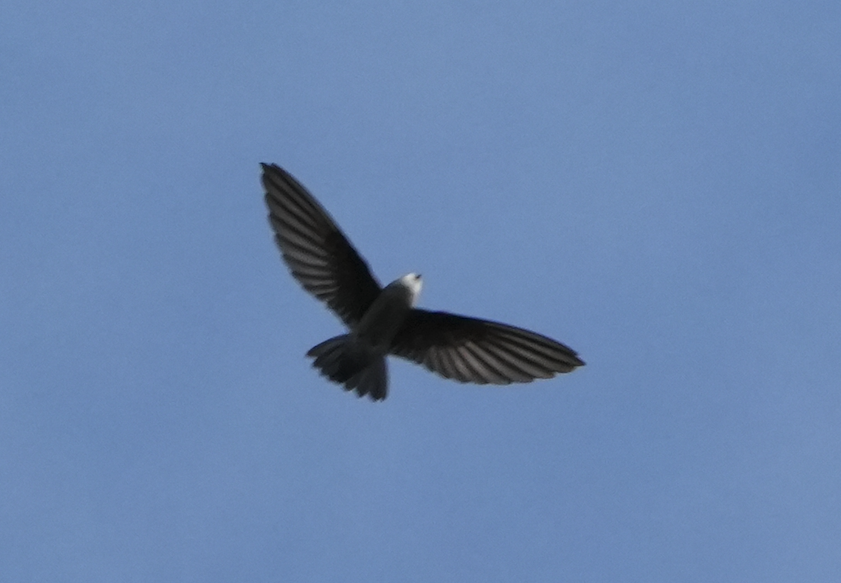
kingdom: Animalia
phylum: Chordata
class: Aves
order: Apodiformes
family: Apodidae
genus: Apus
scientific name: Apus nipalensis
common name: House swift
